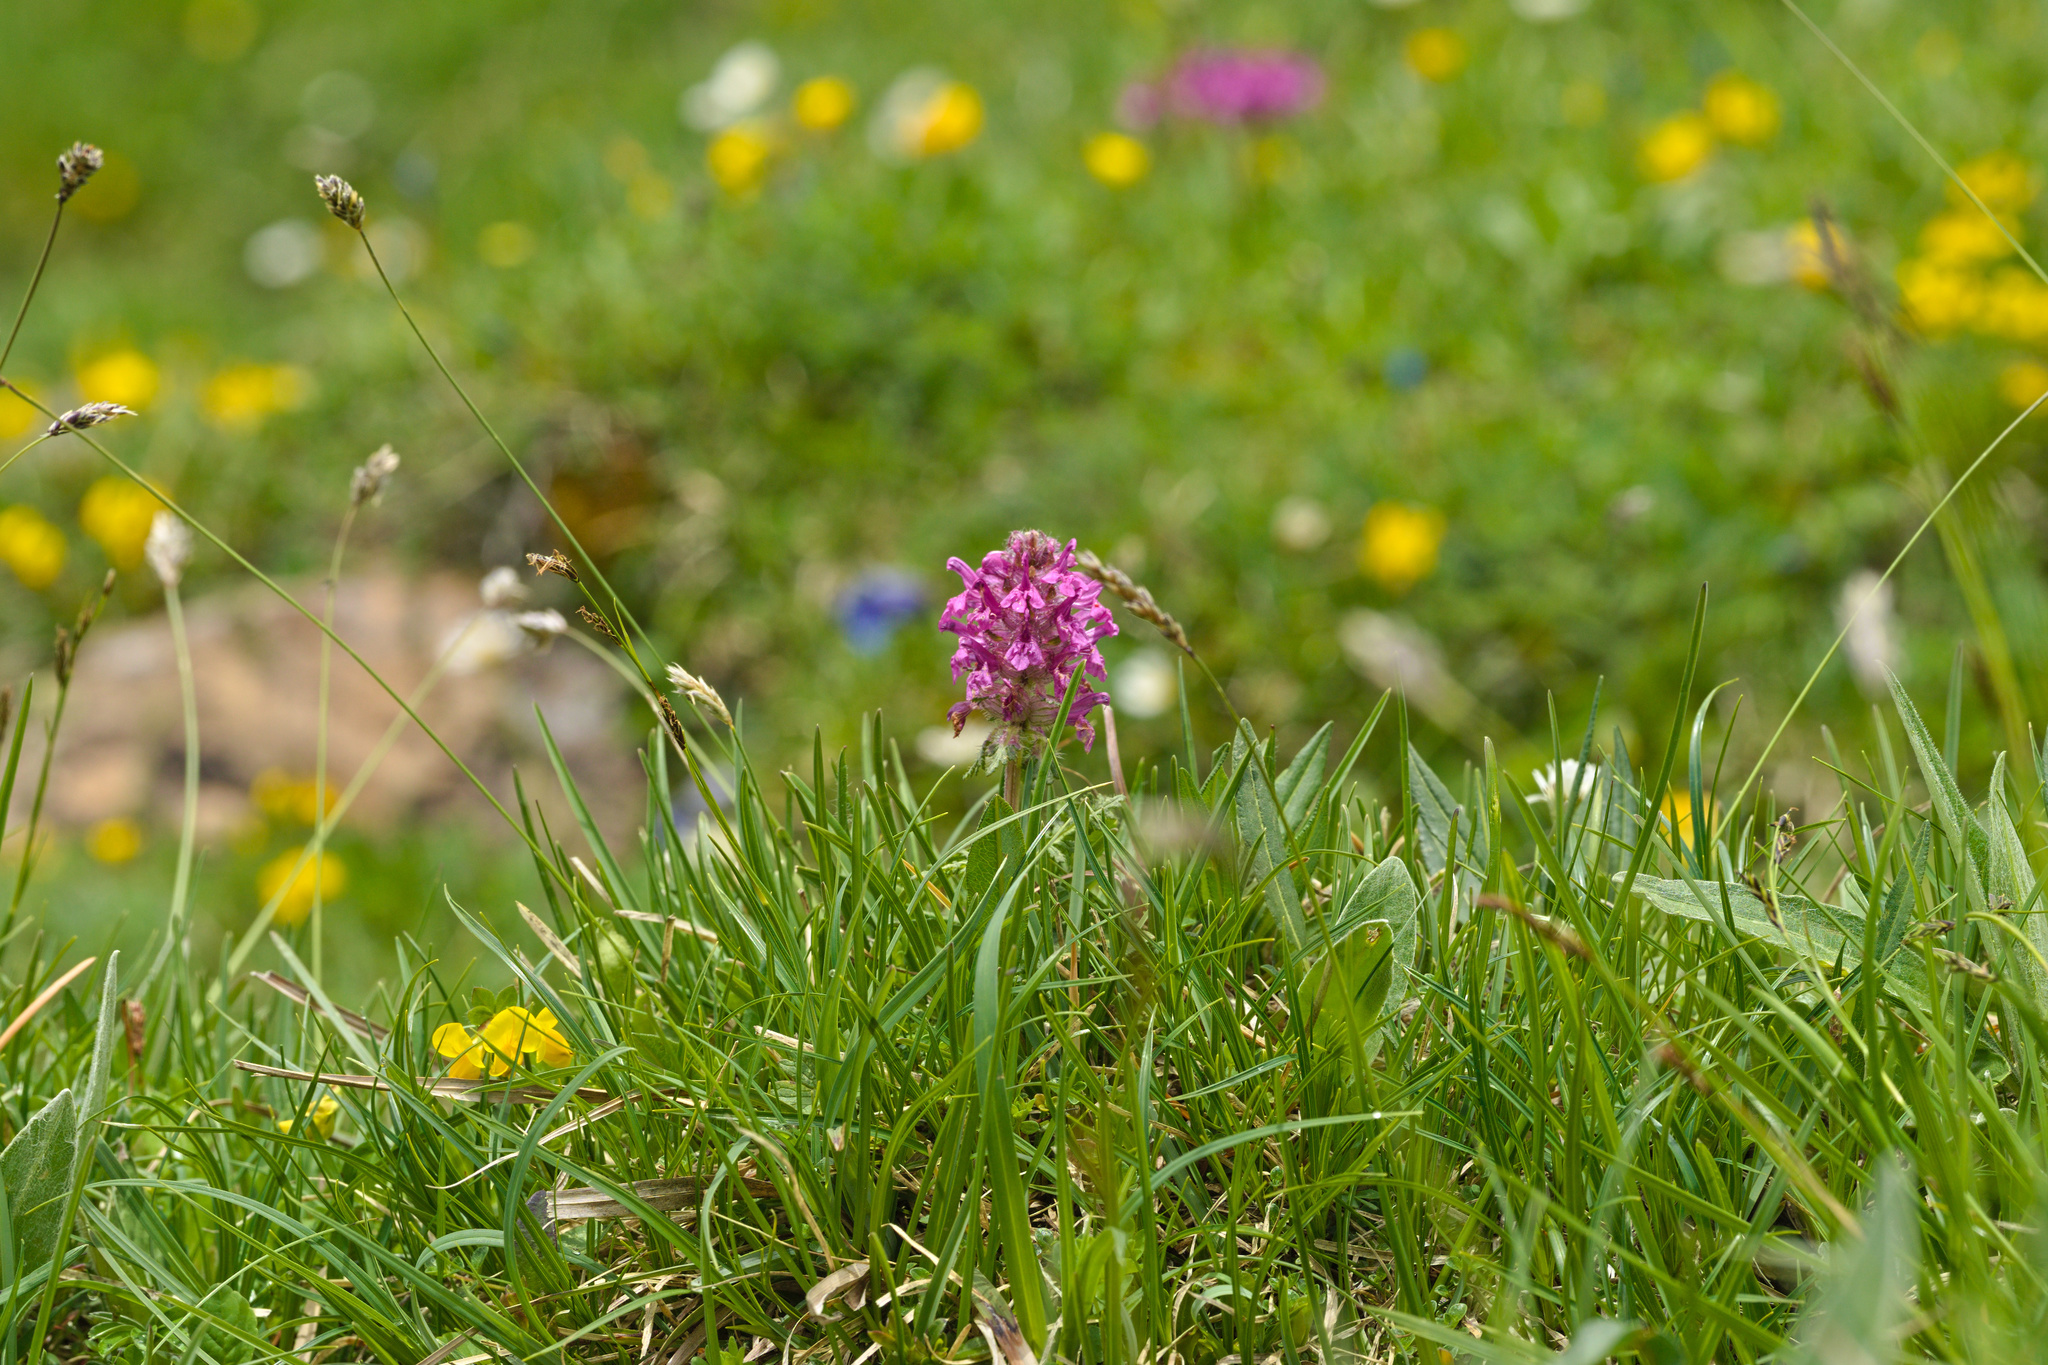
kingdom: Plantae
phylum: Tracheophyta
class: Magnoliopsida
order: Lamiales
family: Orobanchaceae
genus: Pedicularis
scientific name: Pedicularis verticillata
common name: Whorled lousewort
